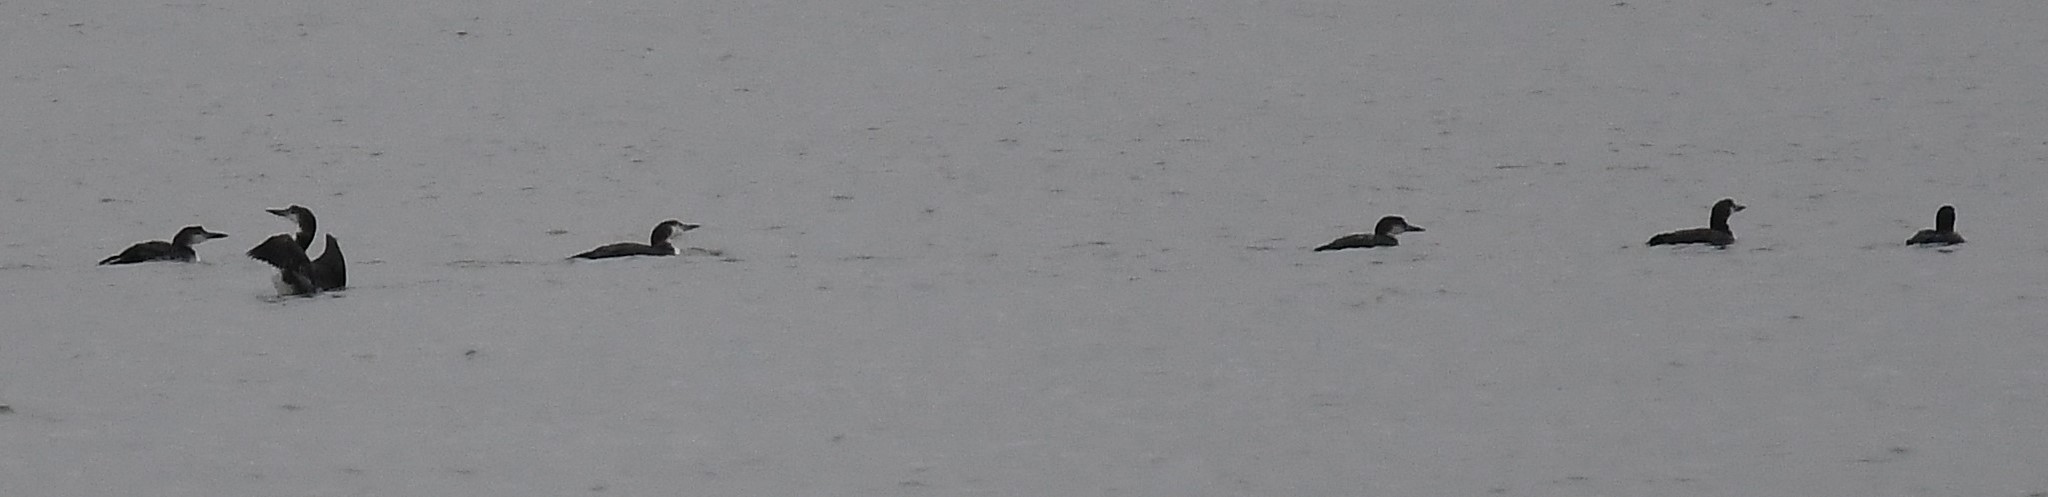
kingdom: Animalia
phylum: Chordata
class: Aves
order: Gaviiformes
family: Gaviidae
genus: Gavia
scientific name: Gavia immer
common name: Common loon
